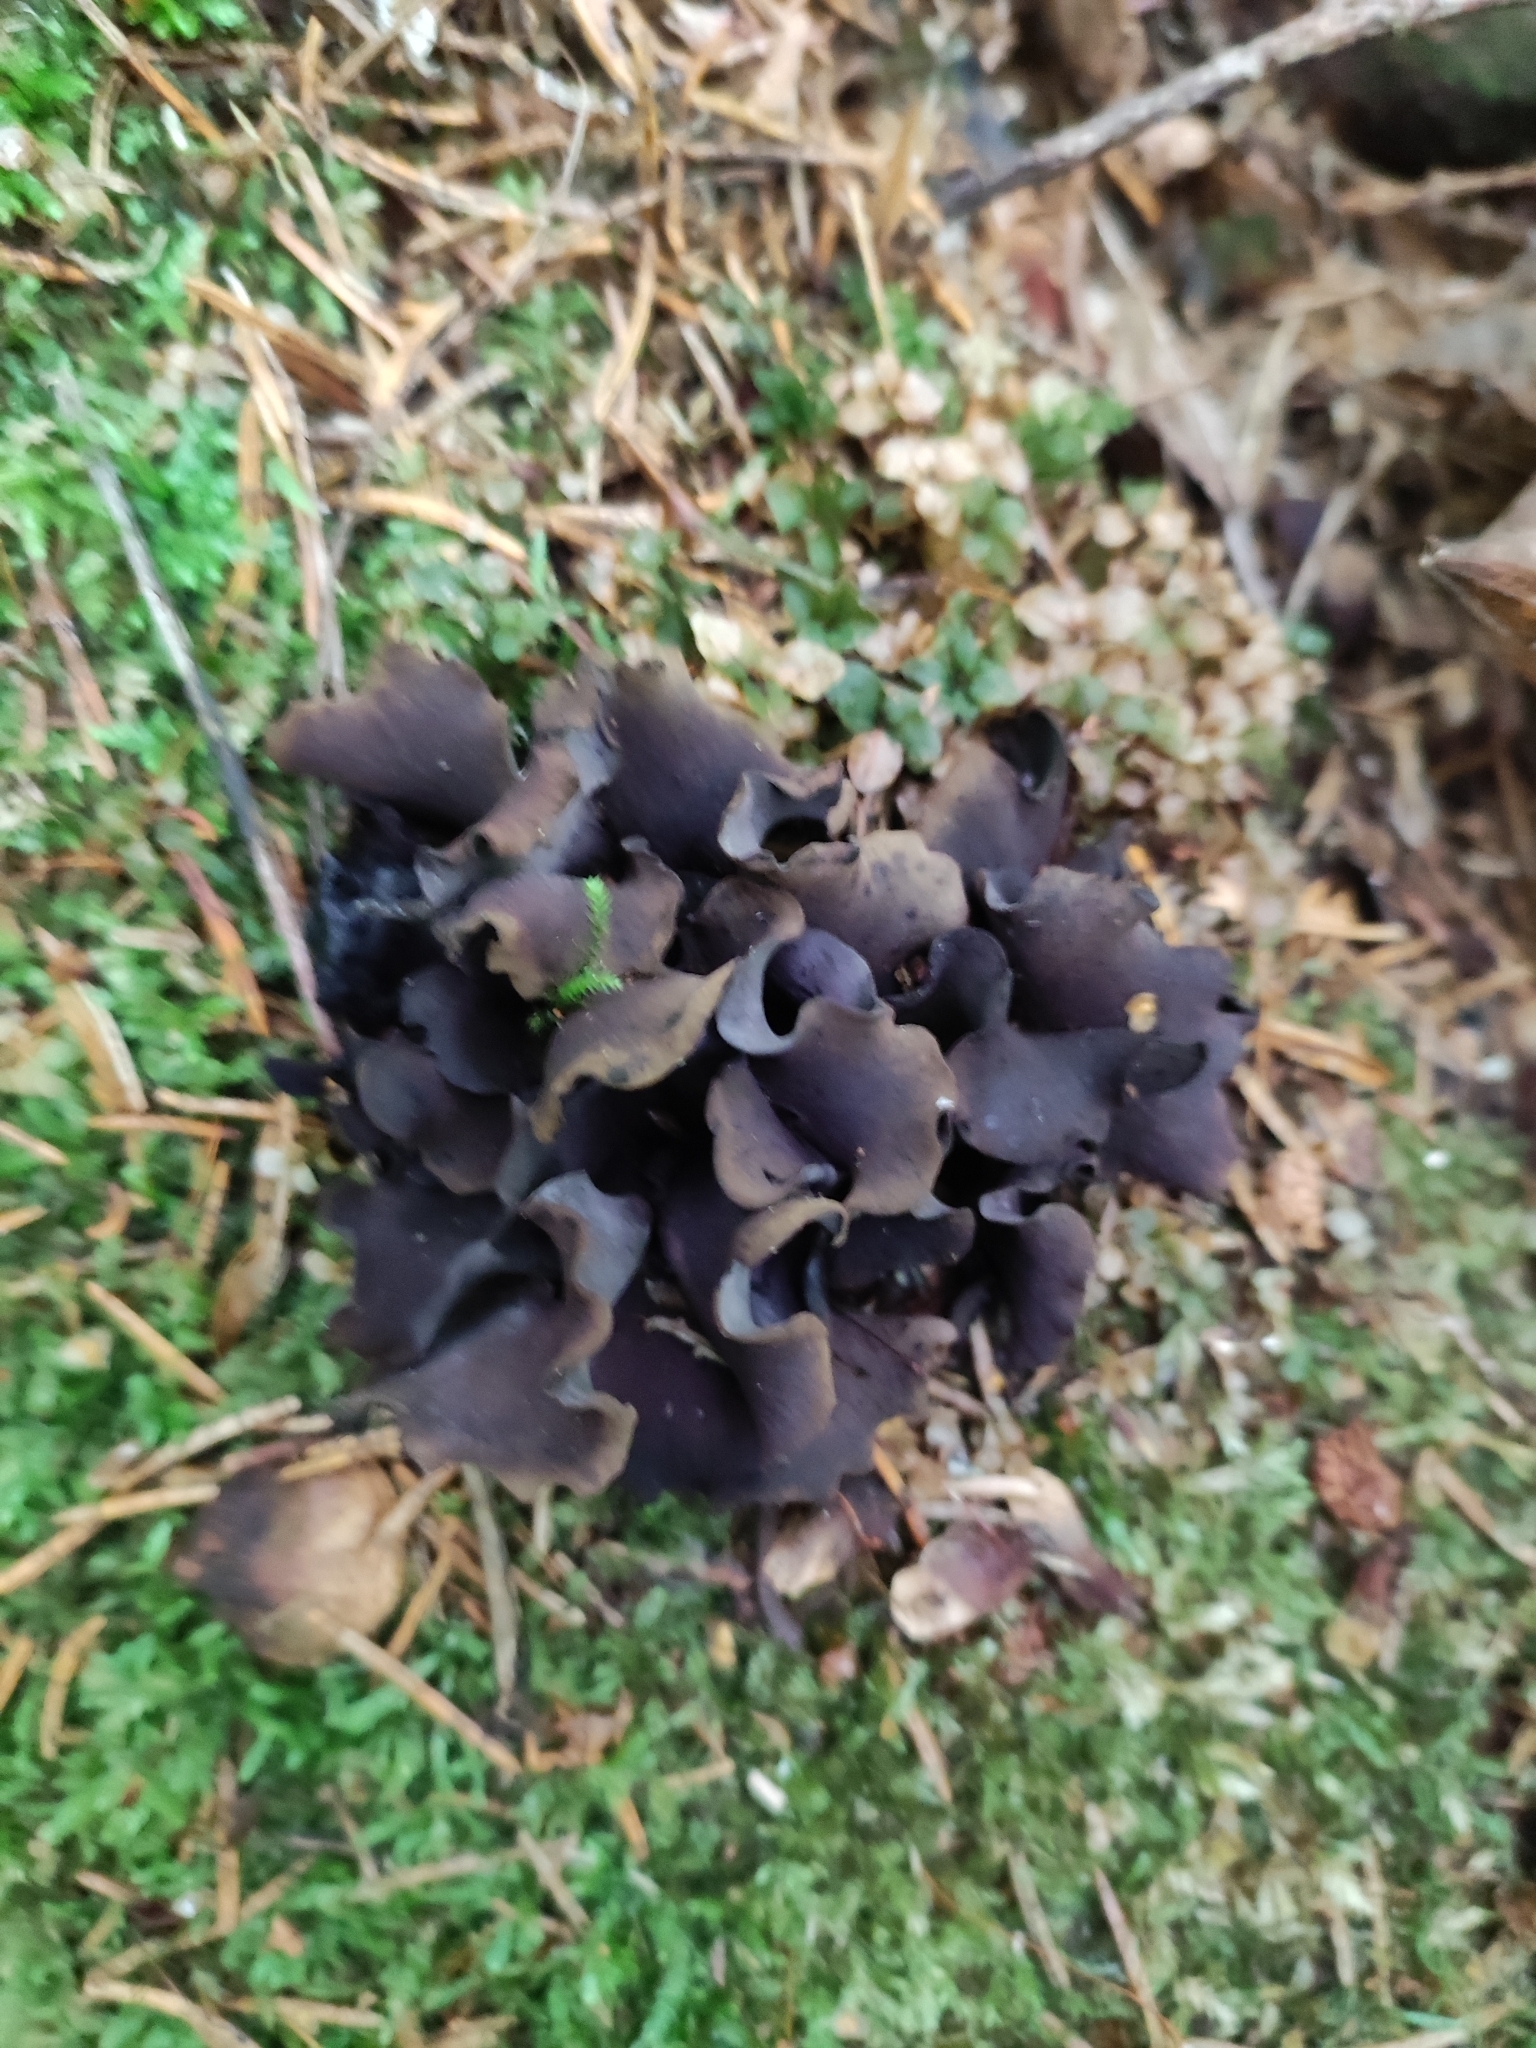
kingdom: Fungi
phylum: Ascomycota
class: Leotiomycetes
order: Helotiales
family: Cordieritidaceae
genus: Diplocarpa
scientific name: Diplocarpa irregularis
